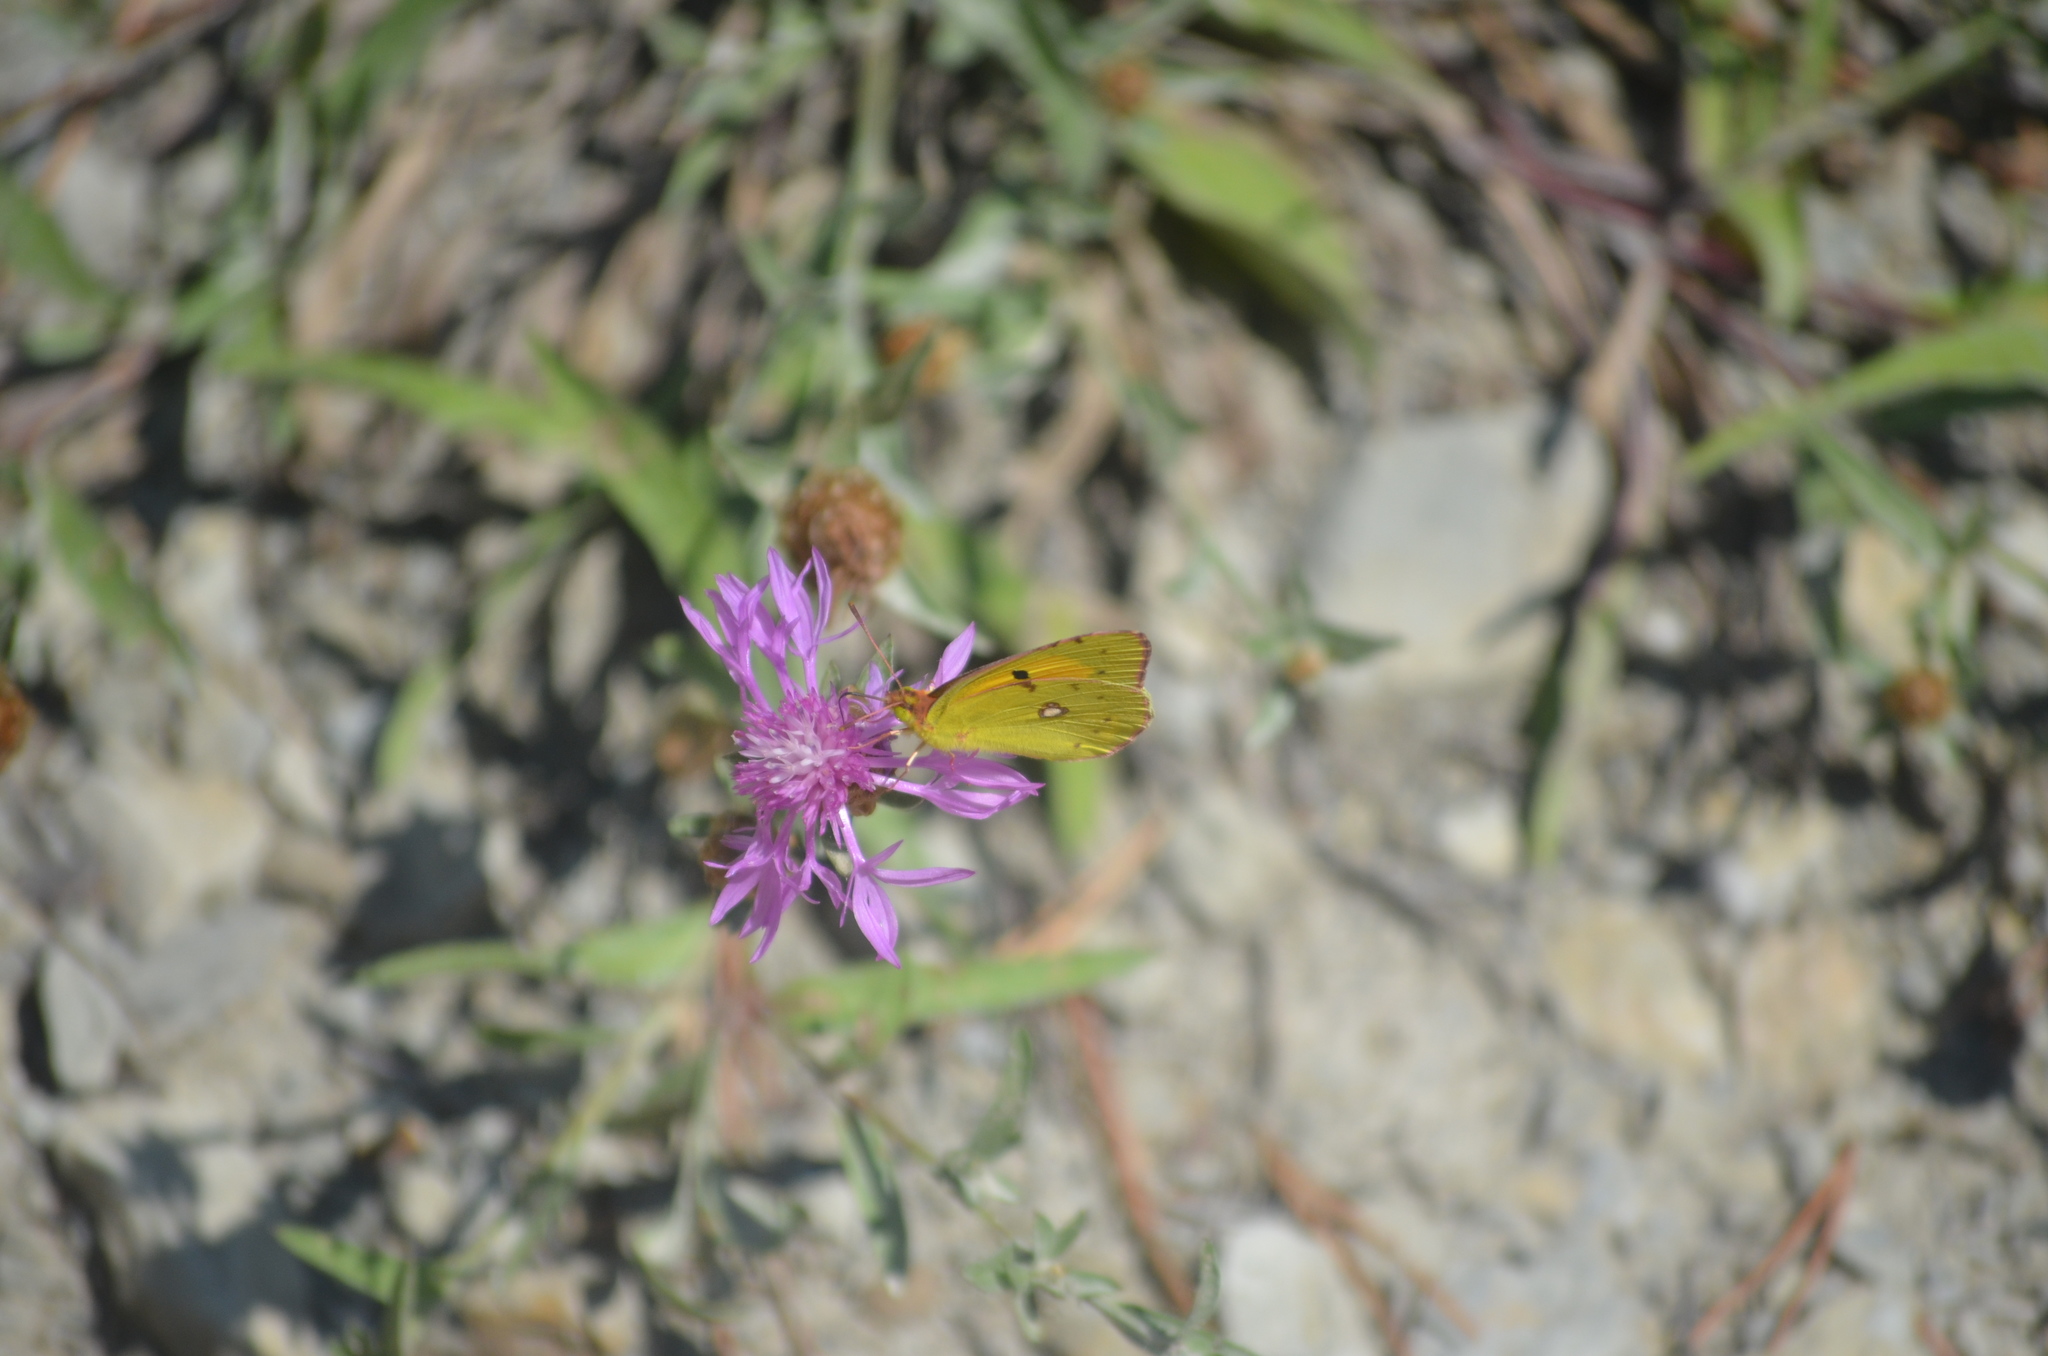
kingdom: Animalia
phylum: Arthropoda
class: Insecta
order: Lepidoptera
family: Pieridae
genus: Colias
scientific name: Colias croceus
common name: Clouded yellow
